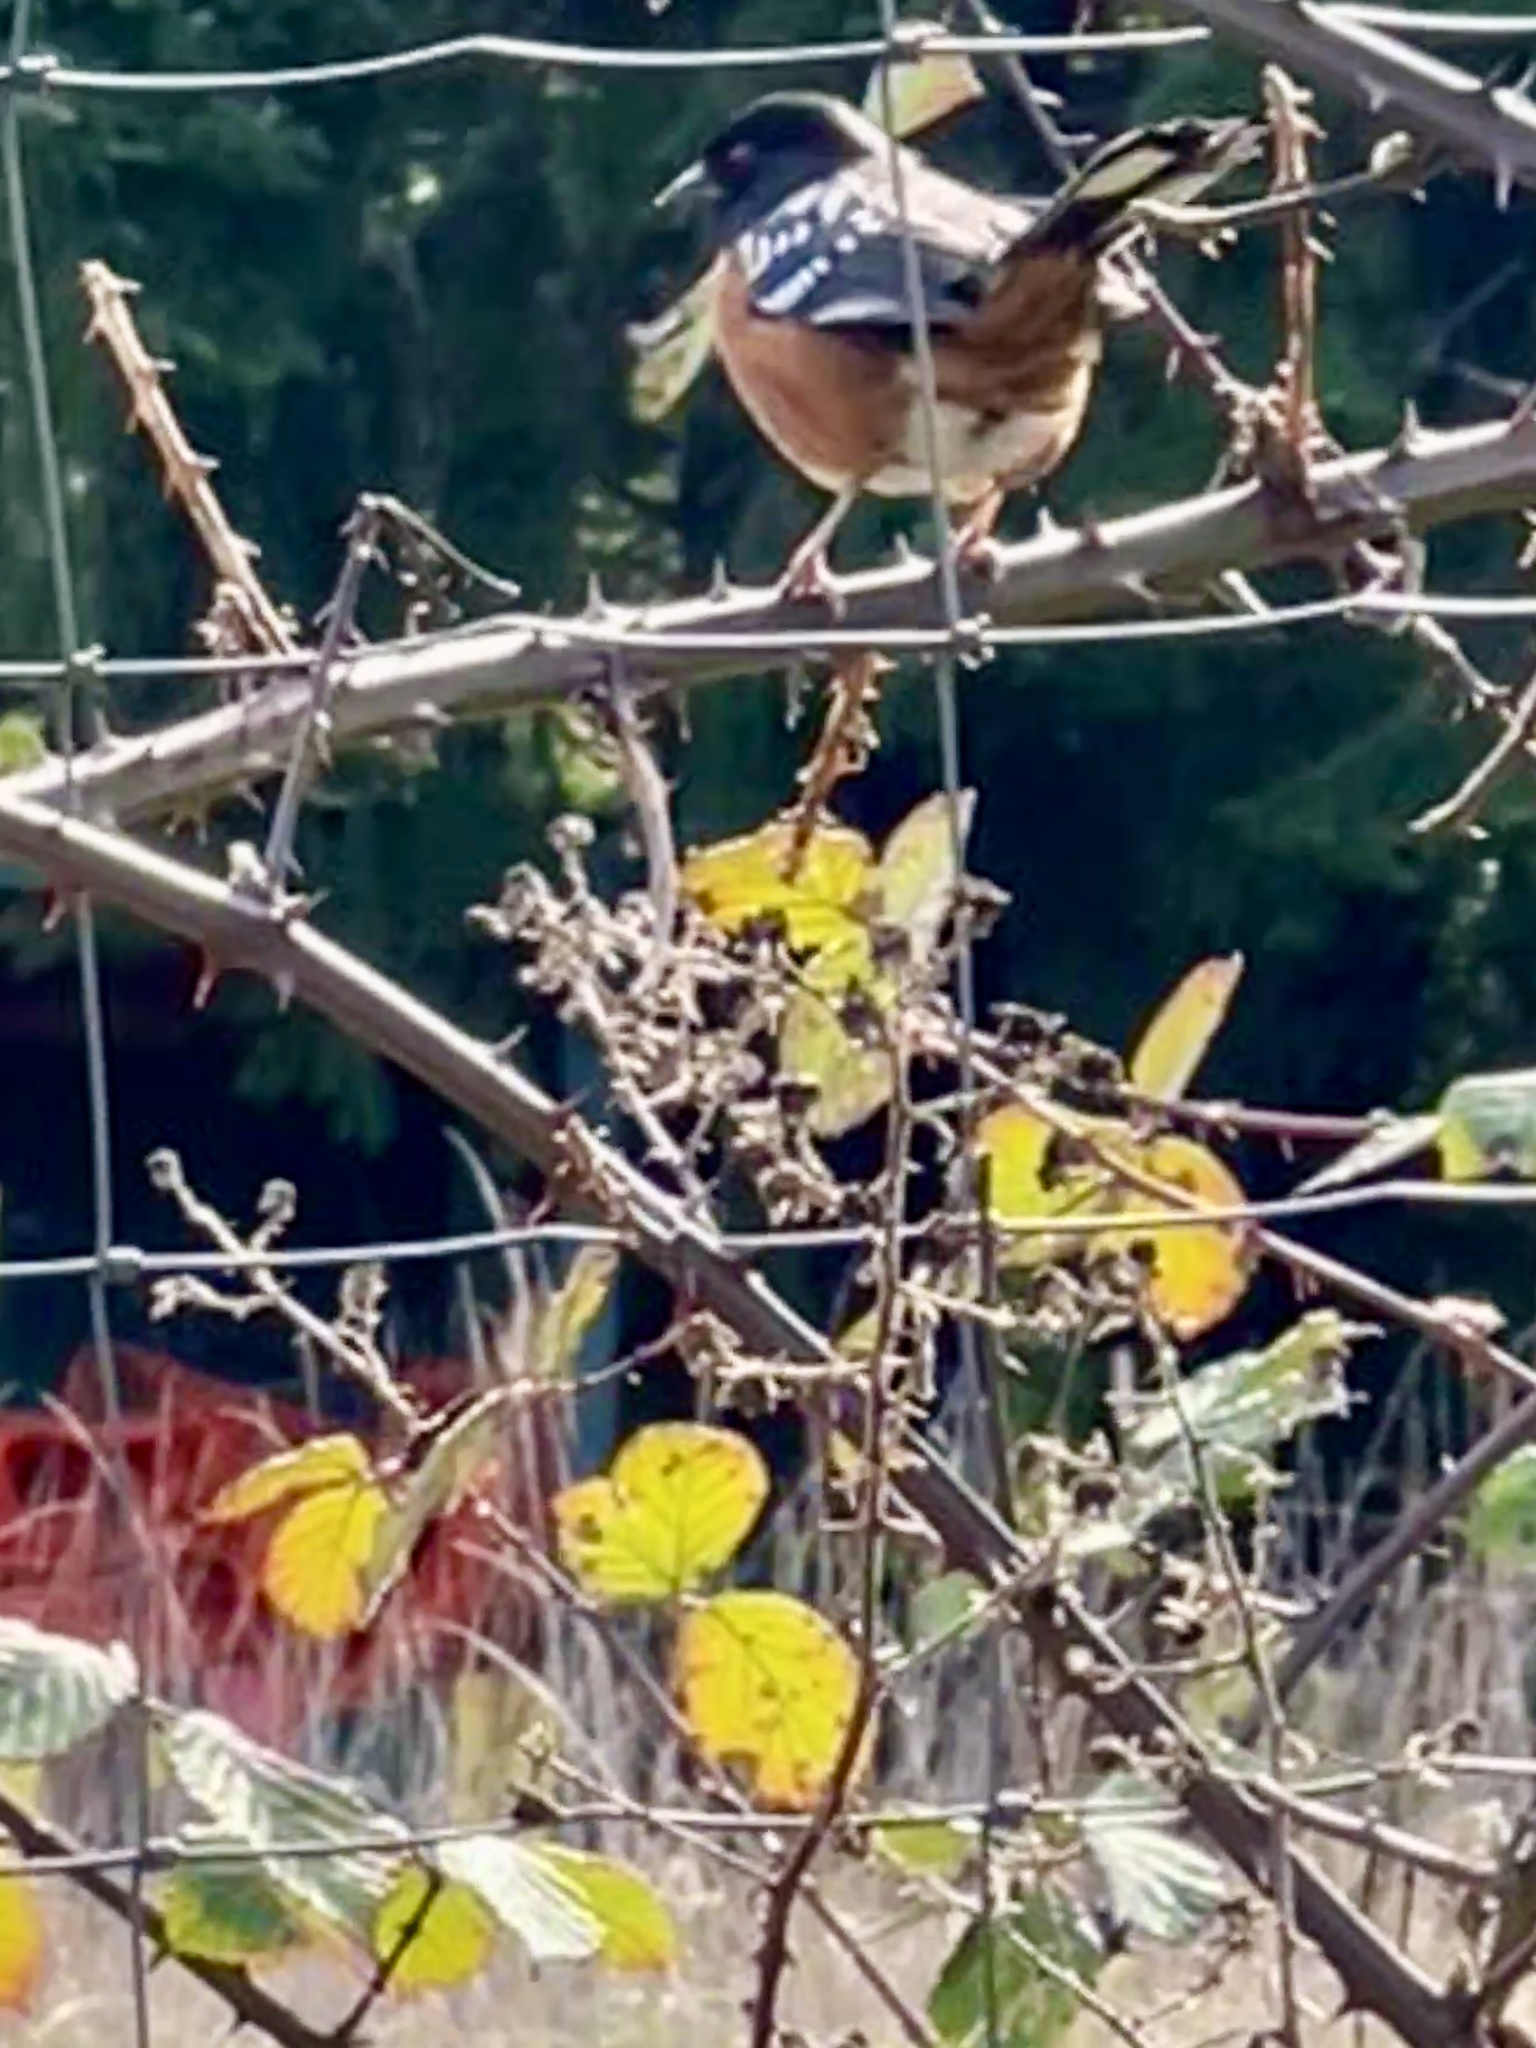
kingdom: Animalia
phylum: Chordata
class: Aves
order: Passeriformes
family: Passerellidae
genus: Pipilo
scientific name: Pipilo maculatus
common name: Spotted towhee
